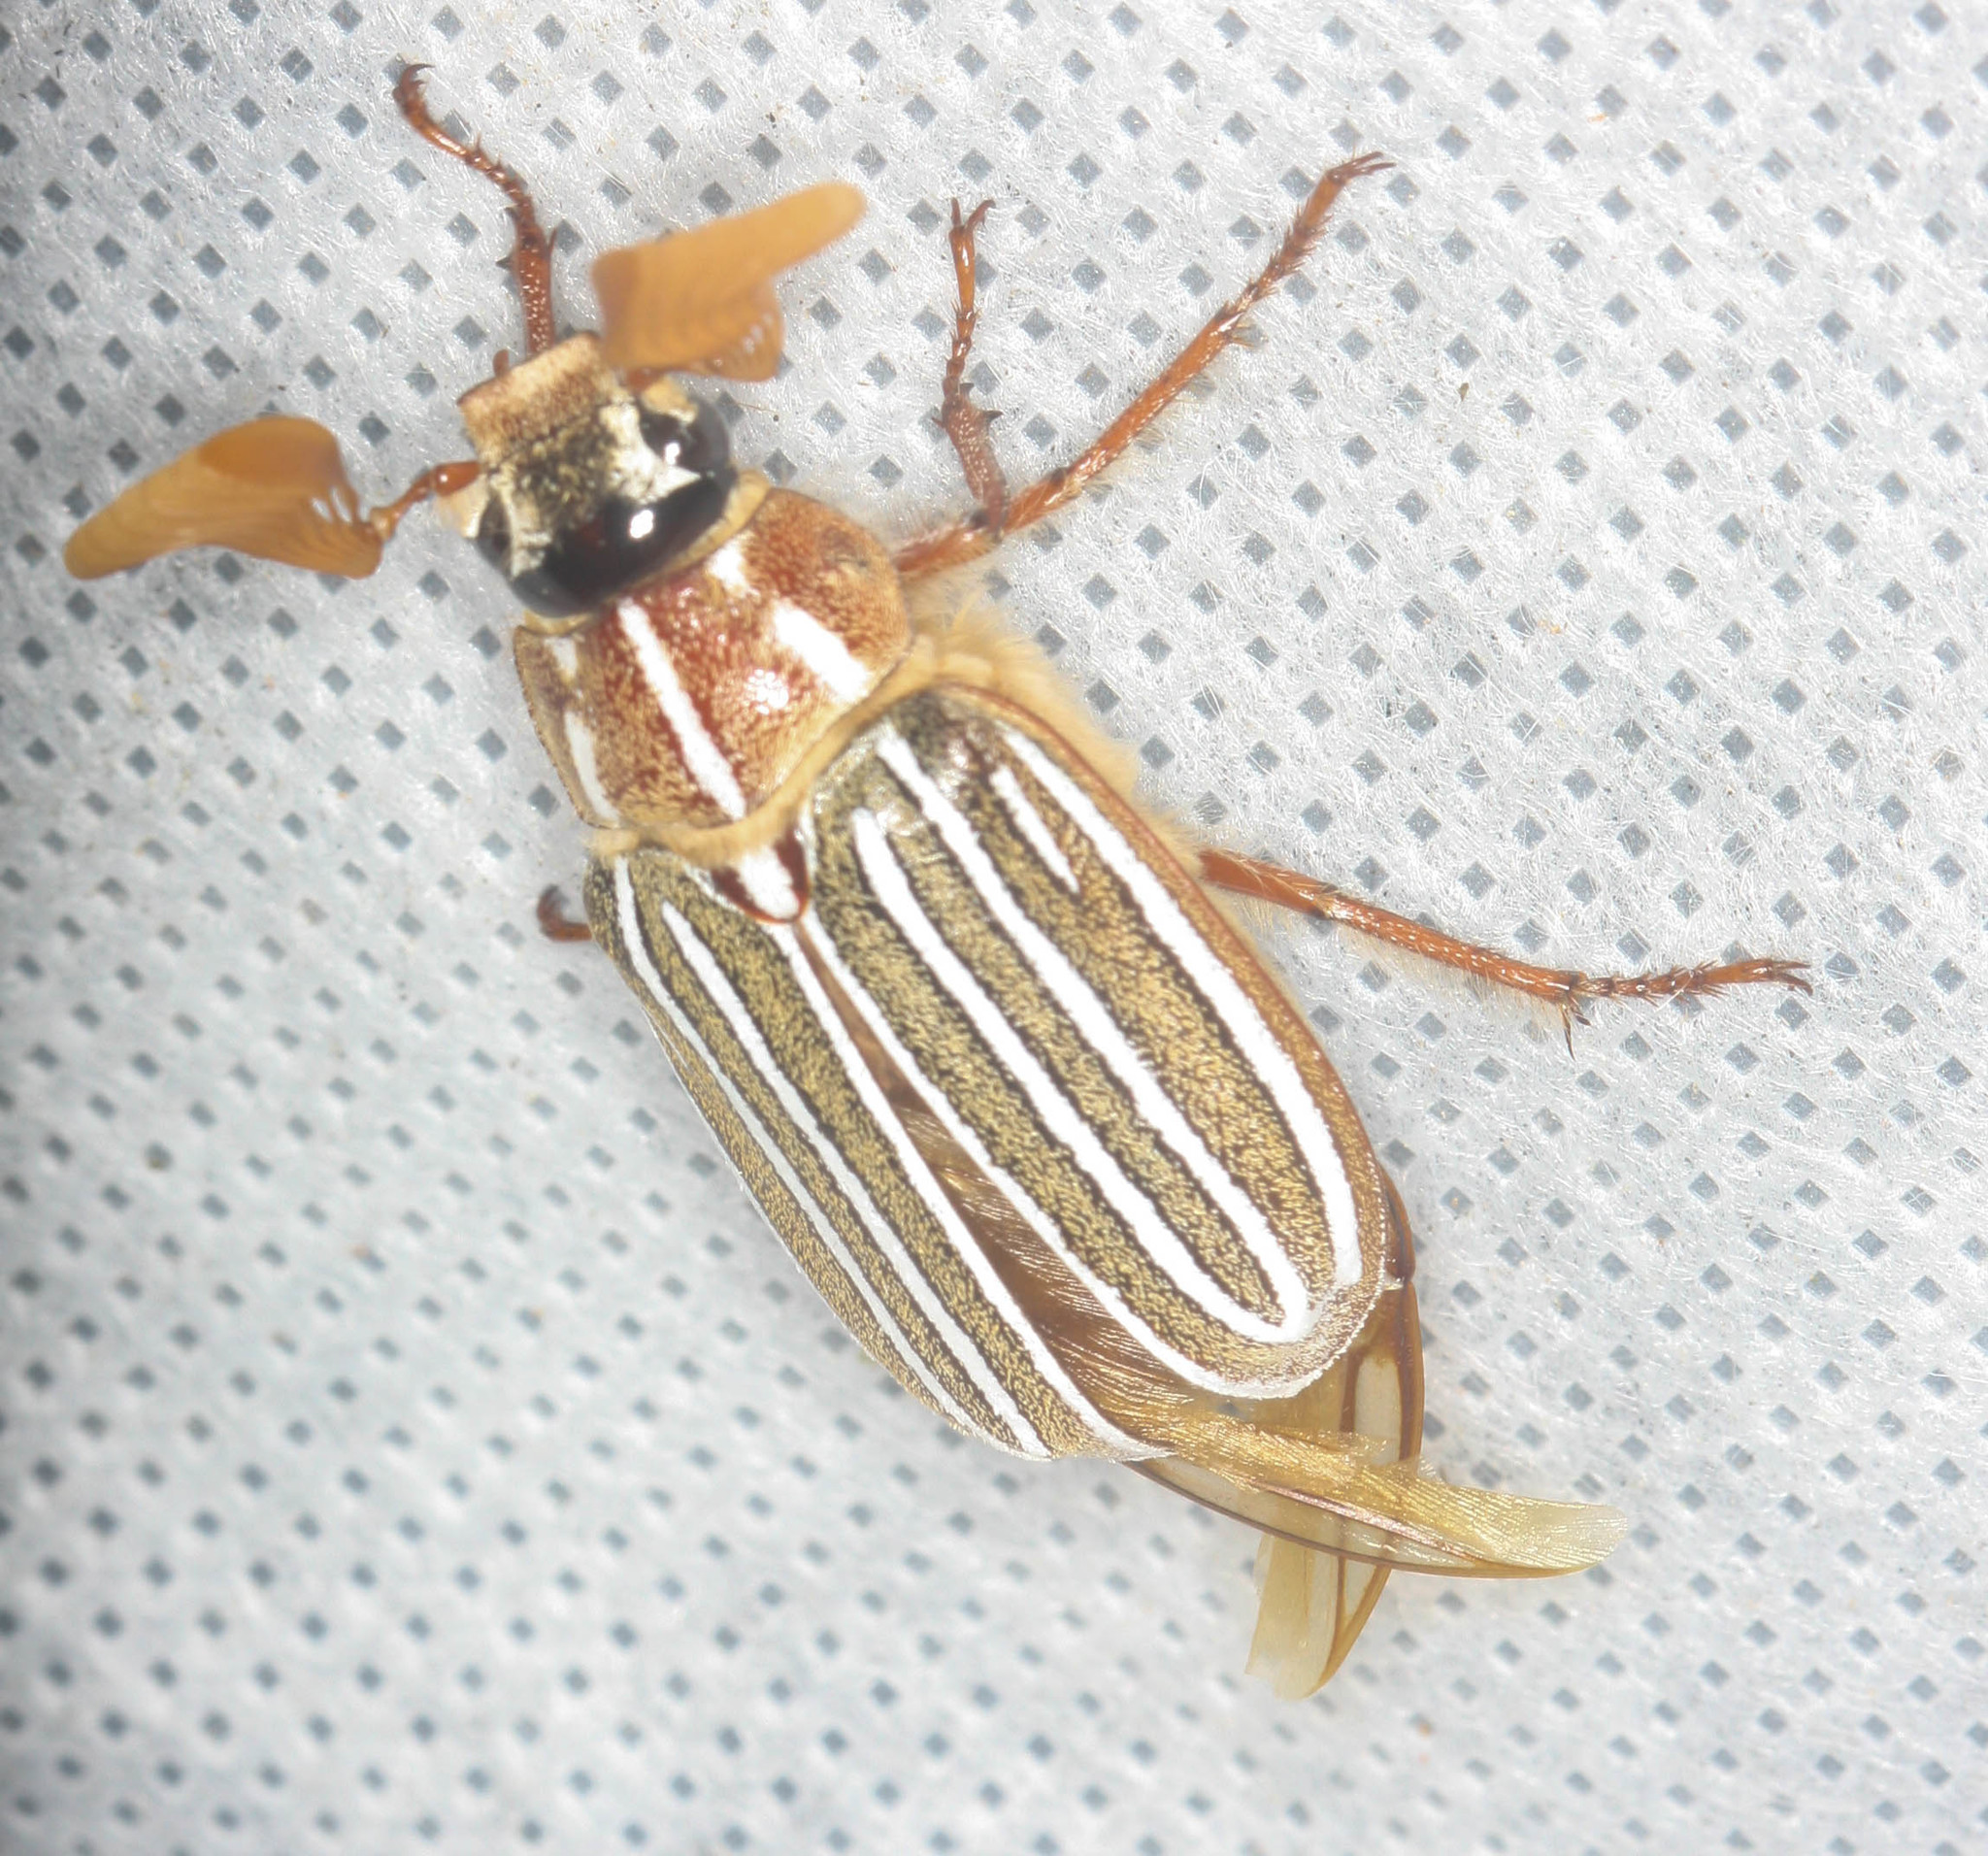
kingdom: Animalia
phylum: Arthropoda
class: Insecta
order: Coleoptera
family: Scarabaeidae
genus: Polyphylla
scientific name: Polyphylla decemlineata
